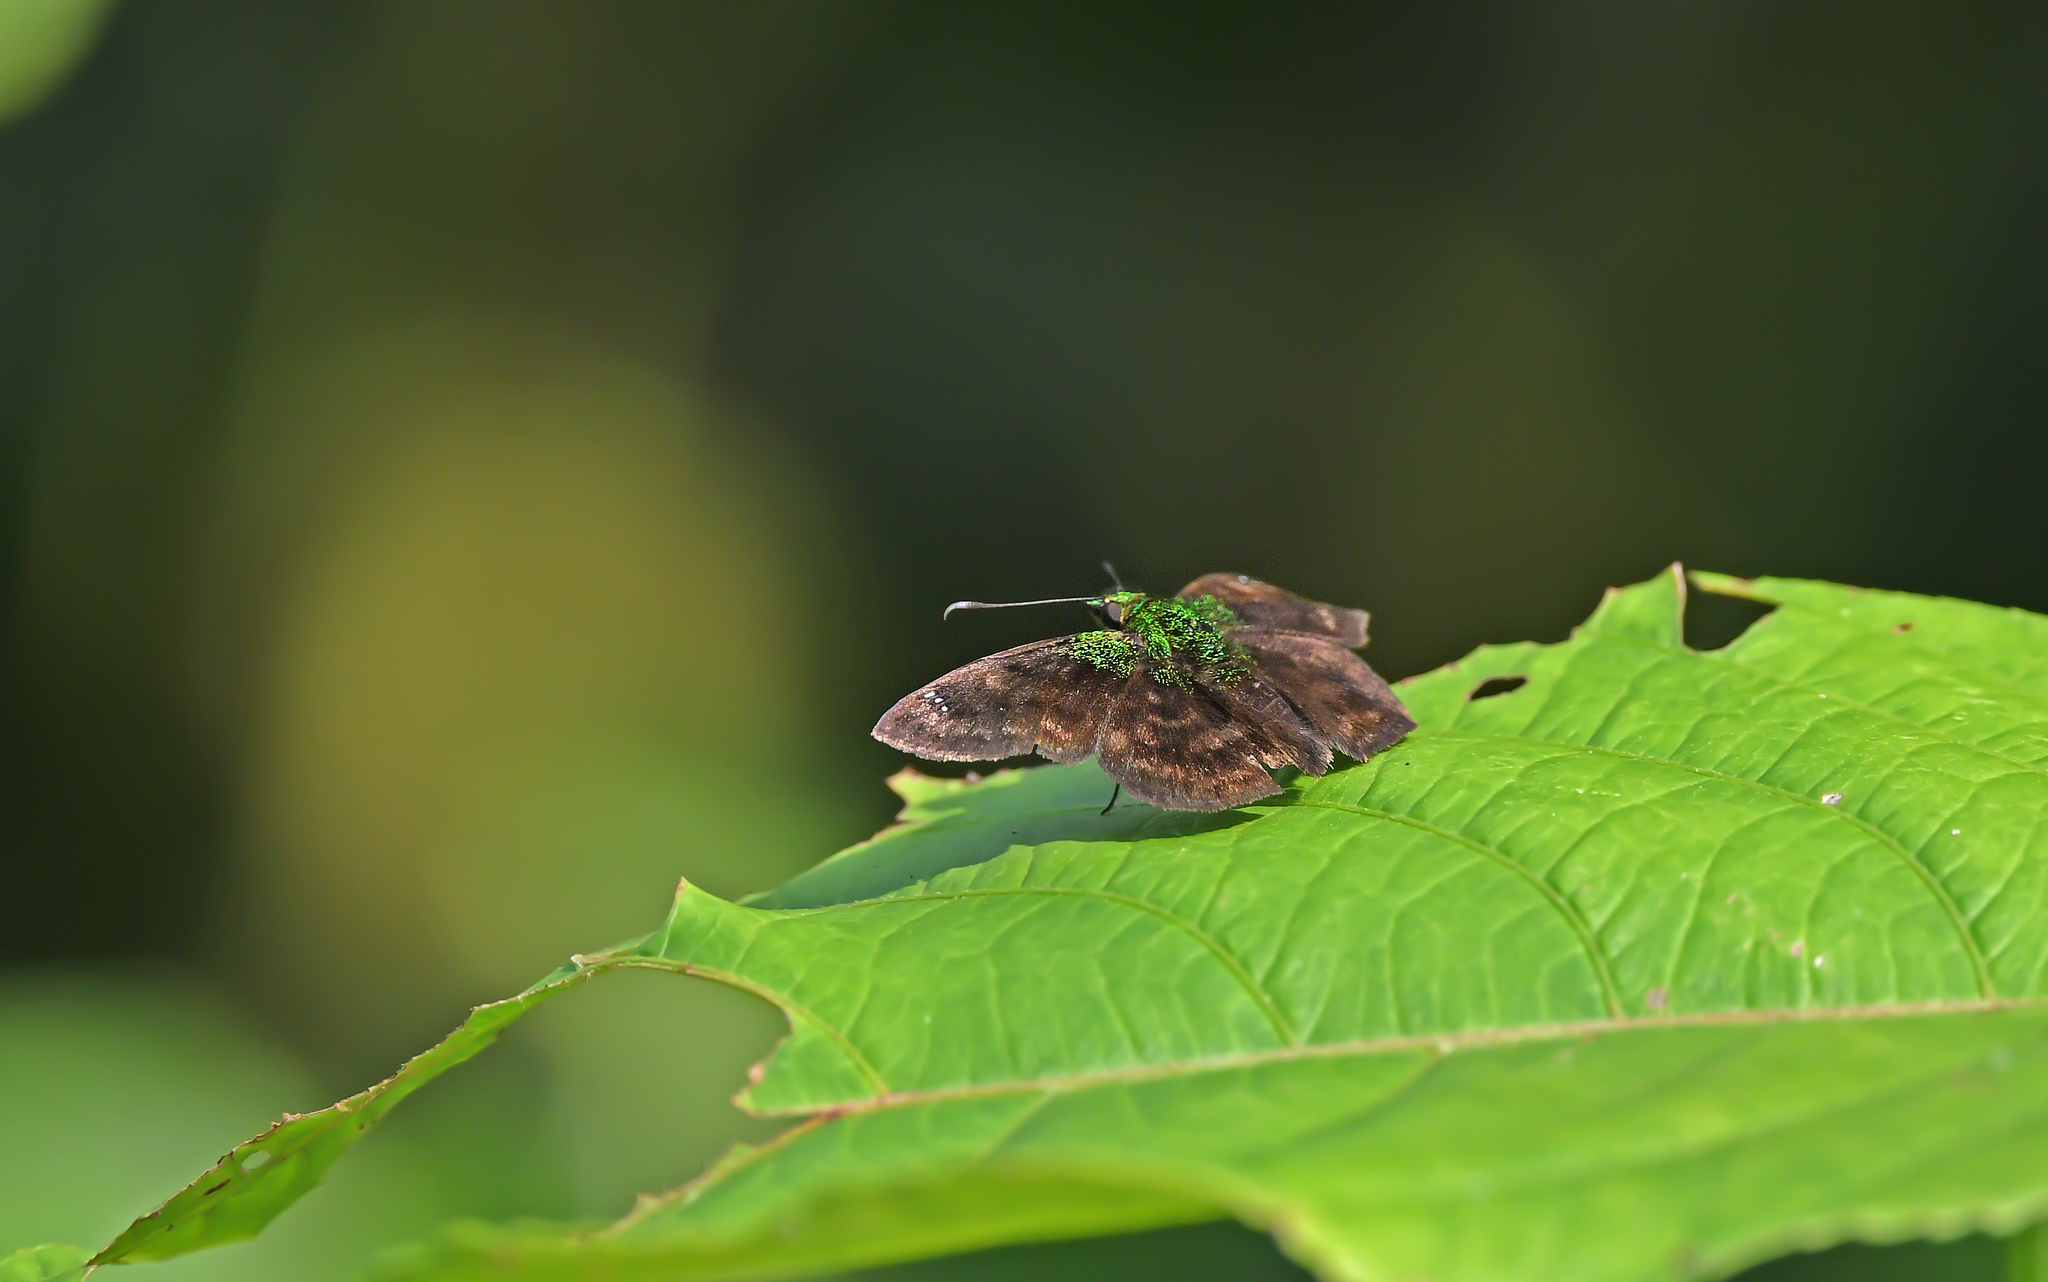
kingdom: Animalia
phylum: Arthropoda
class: Insecta
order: Lepidoptera
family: Hesperiidae
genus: Gorgopas
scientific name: Gorgopas trochilus
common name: Green-shouldered sootywing
